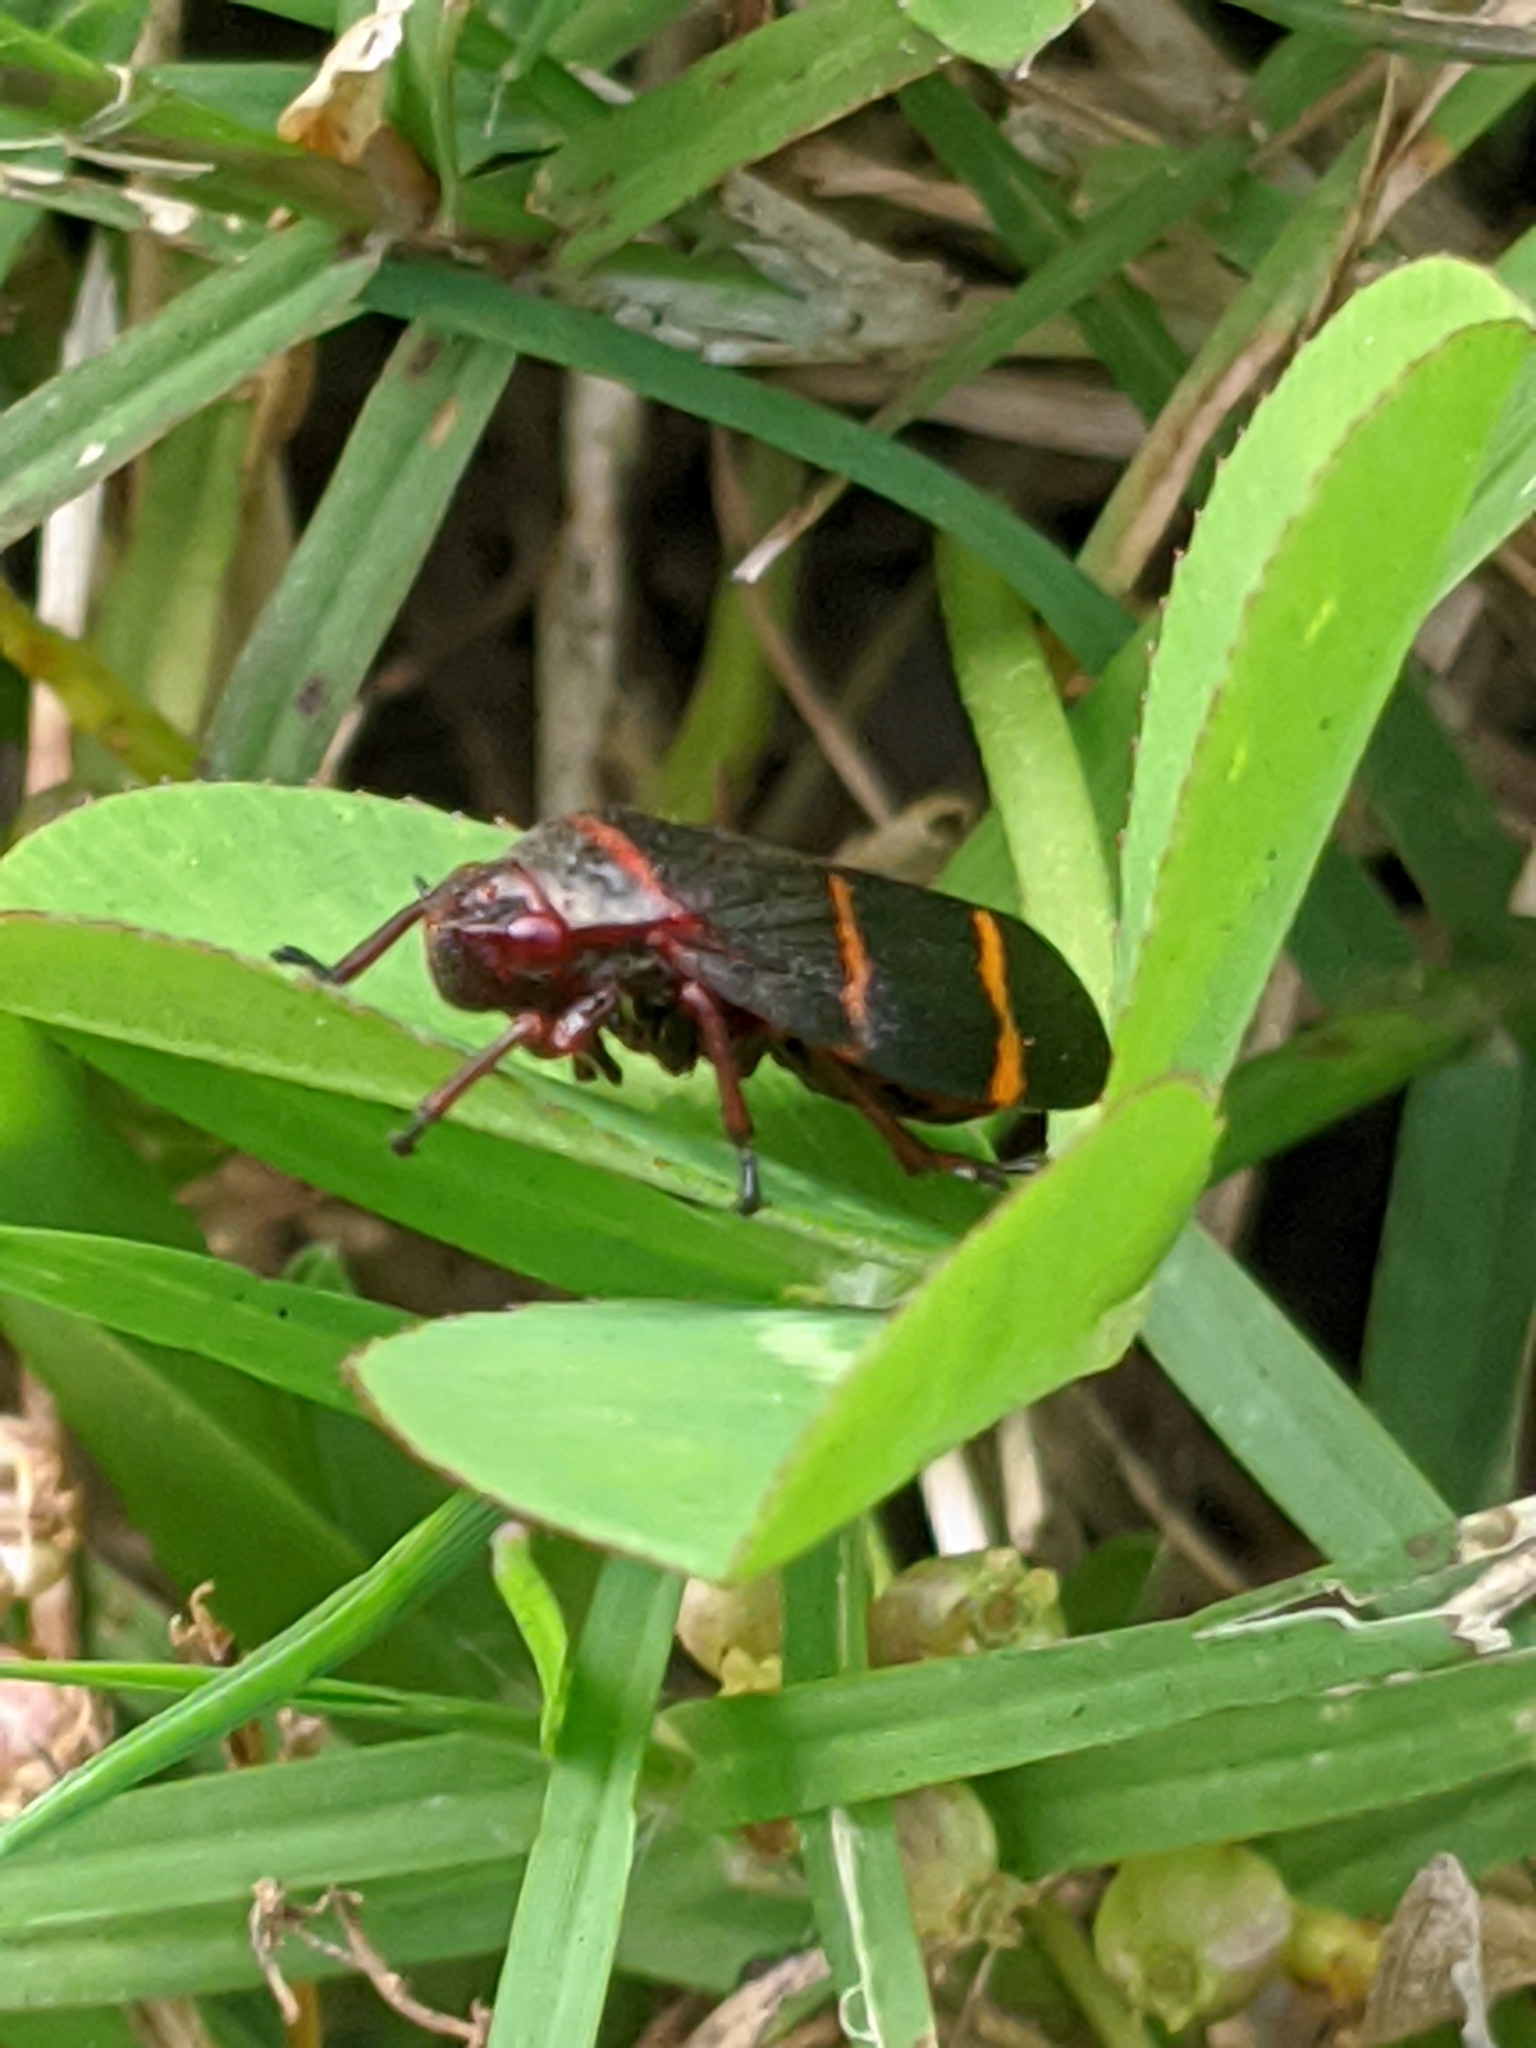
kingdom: Animalia
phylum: Arthropoda
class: Insecta
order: Hemiptera
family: Cercopidae
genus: Prosapia
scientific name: Prosapia bicincta
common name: Twolined spittlebug
